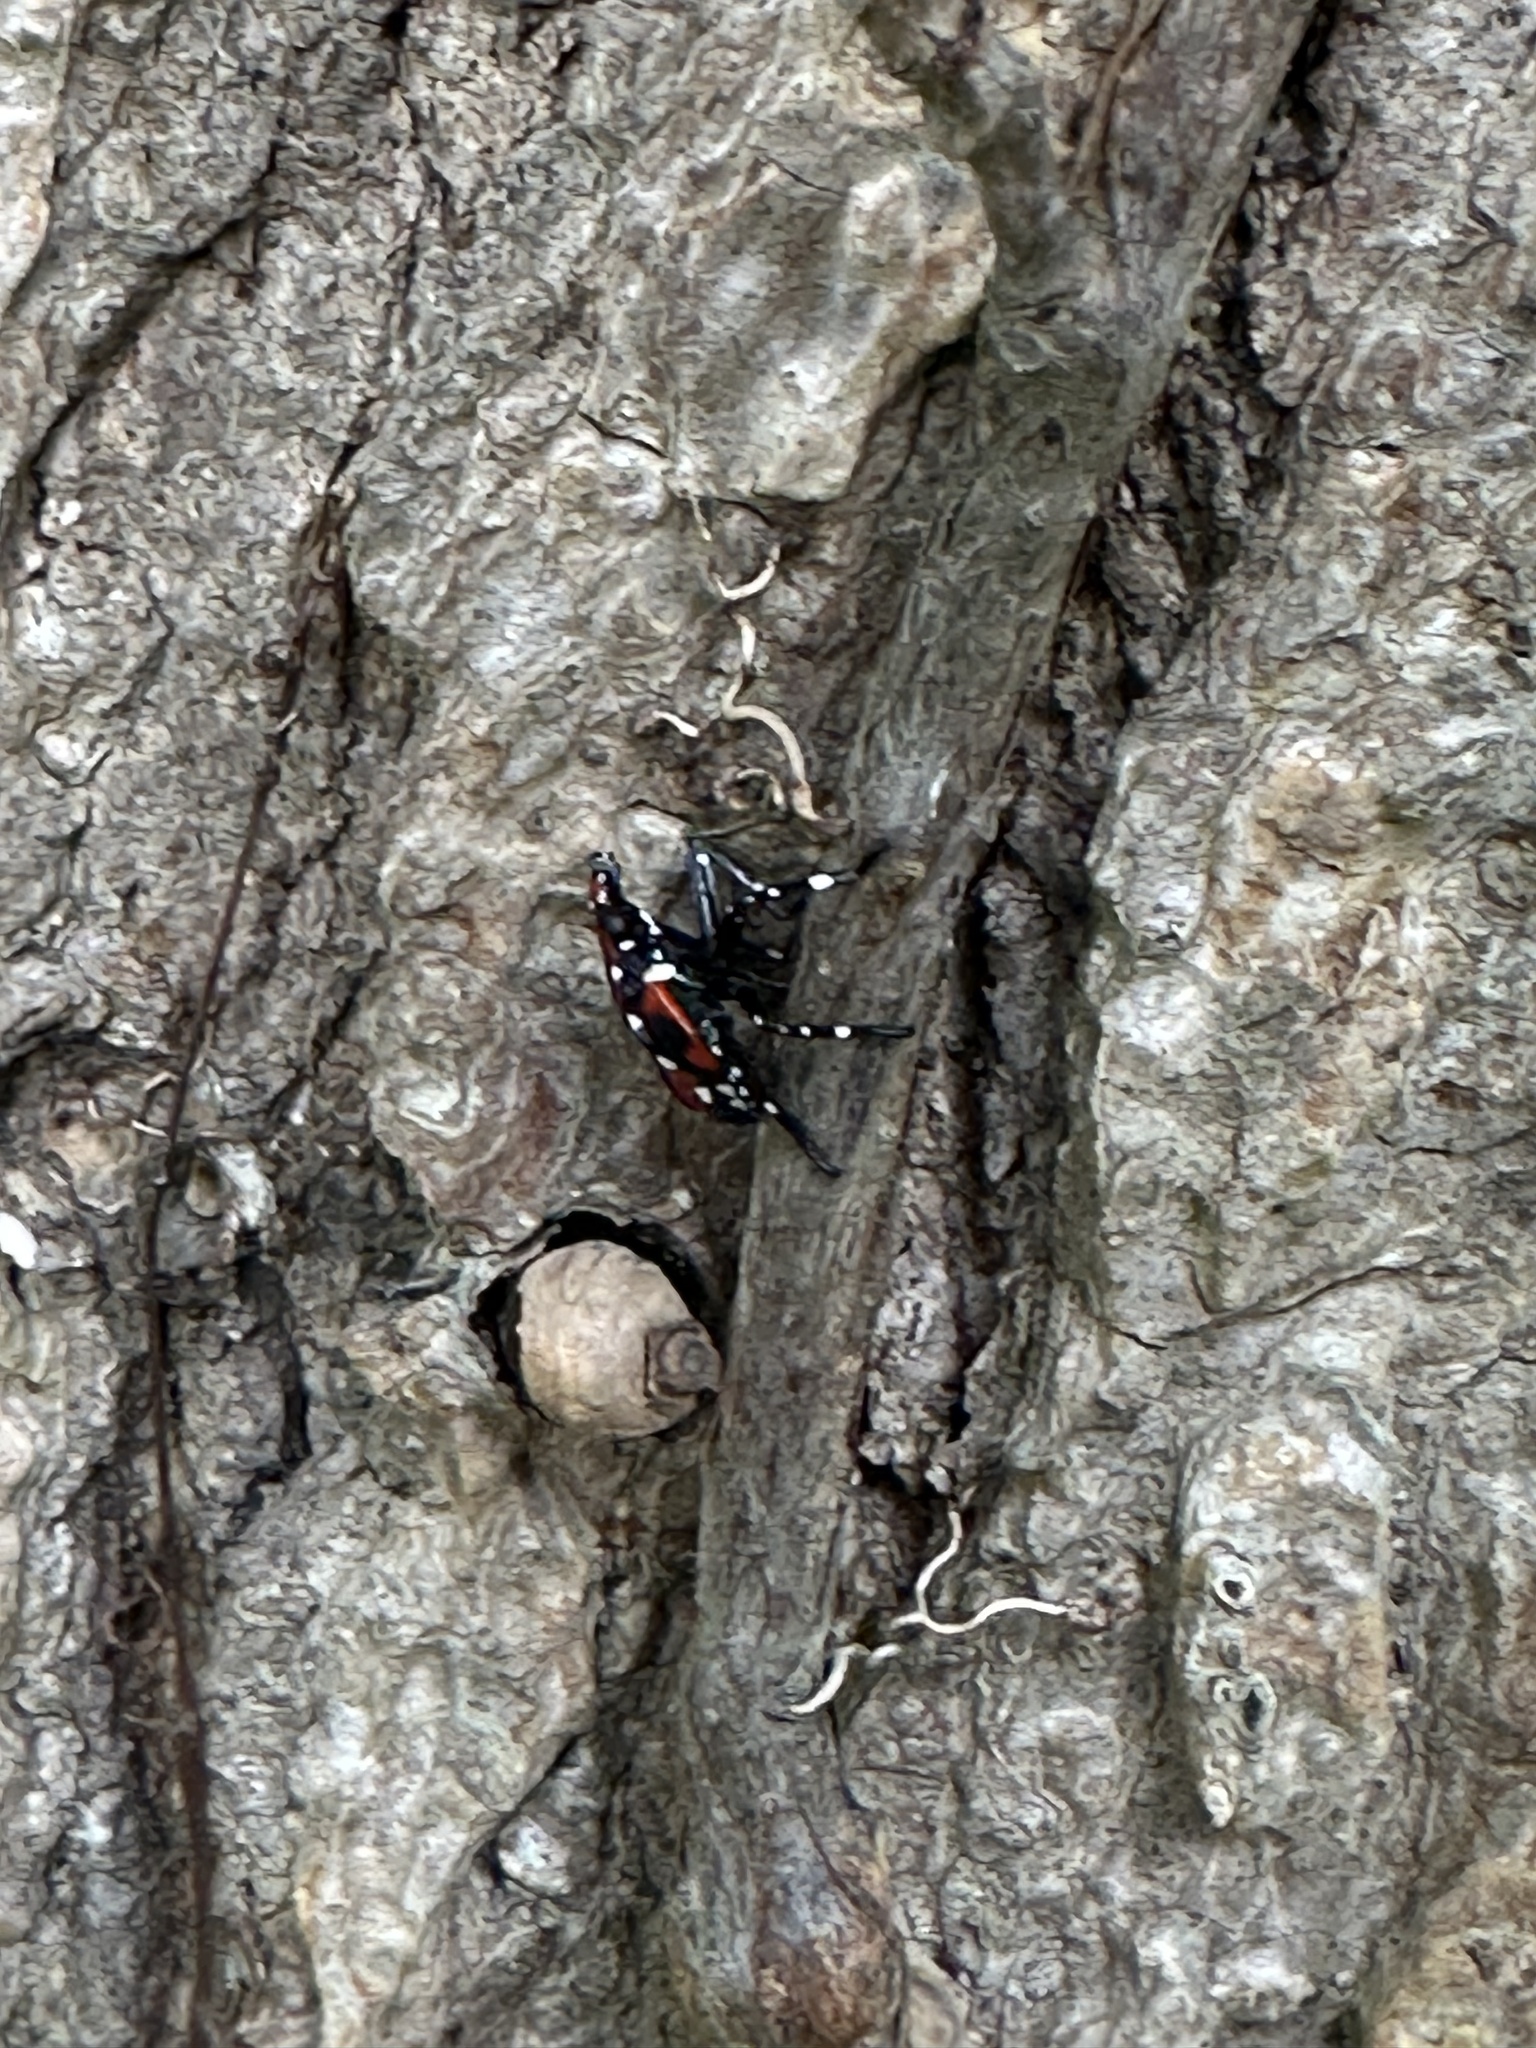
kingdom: Animalia
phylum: Arthropoda
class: Insecta
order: Hemiptera
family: Fulgoridae
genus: Lycorma
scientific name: Lycorma delicatula
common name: Spotted lanternfly
